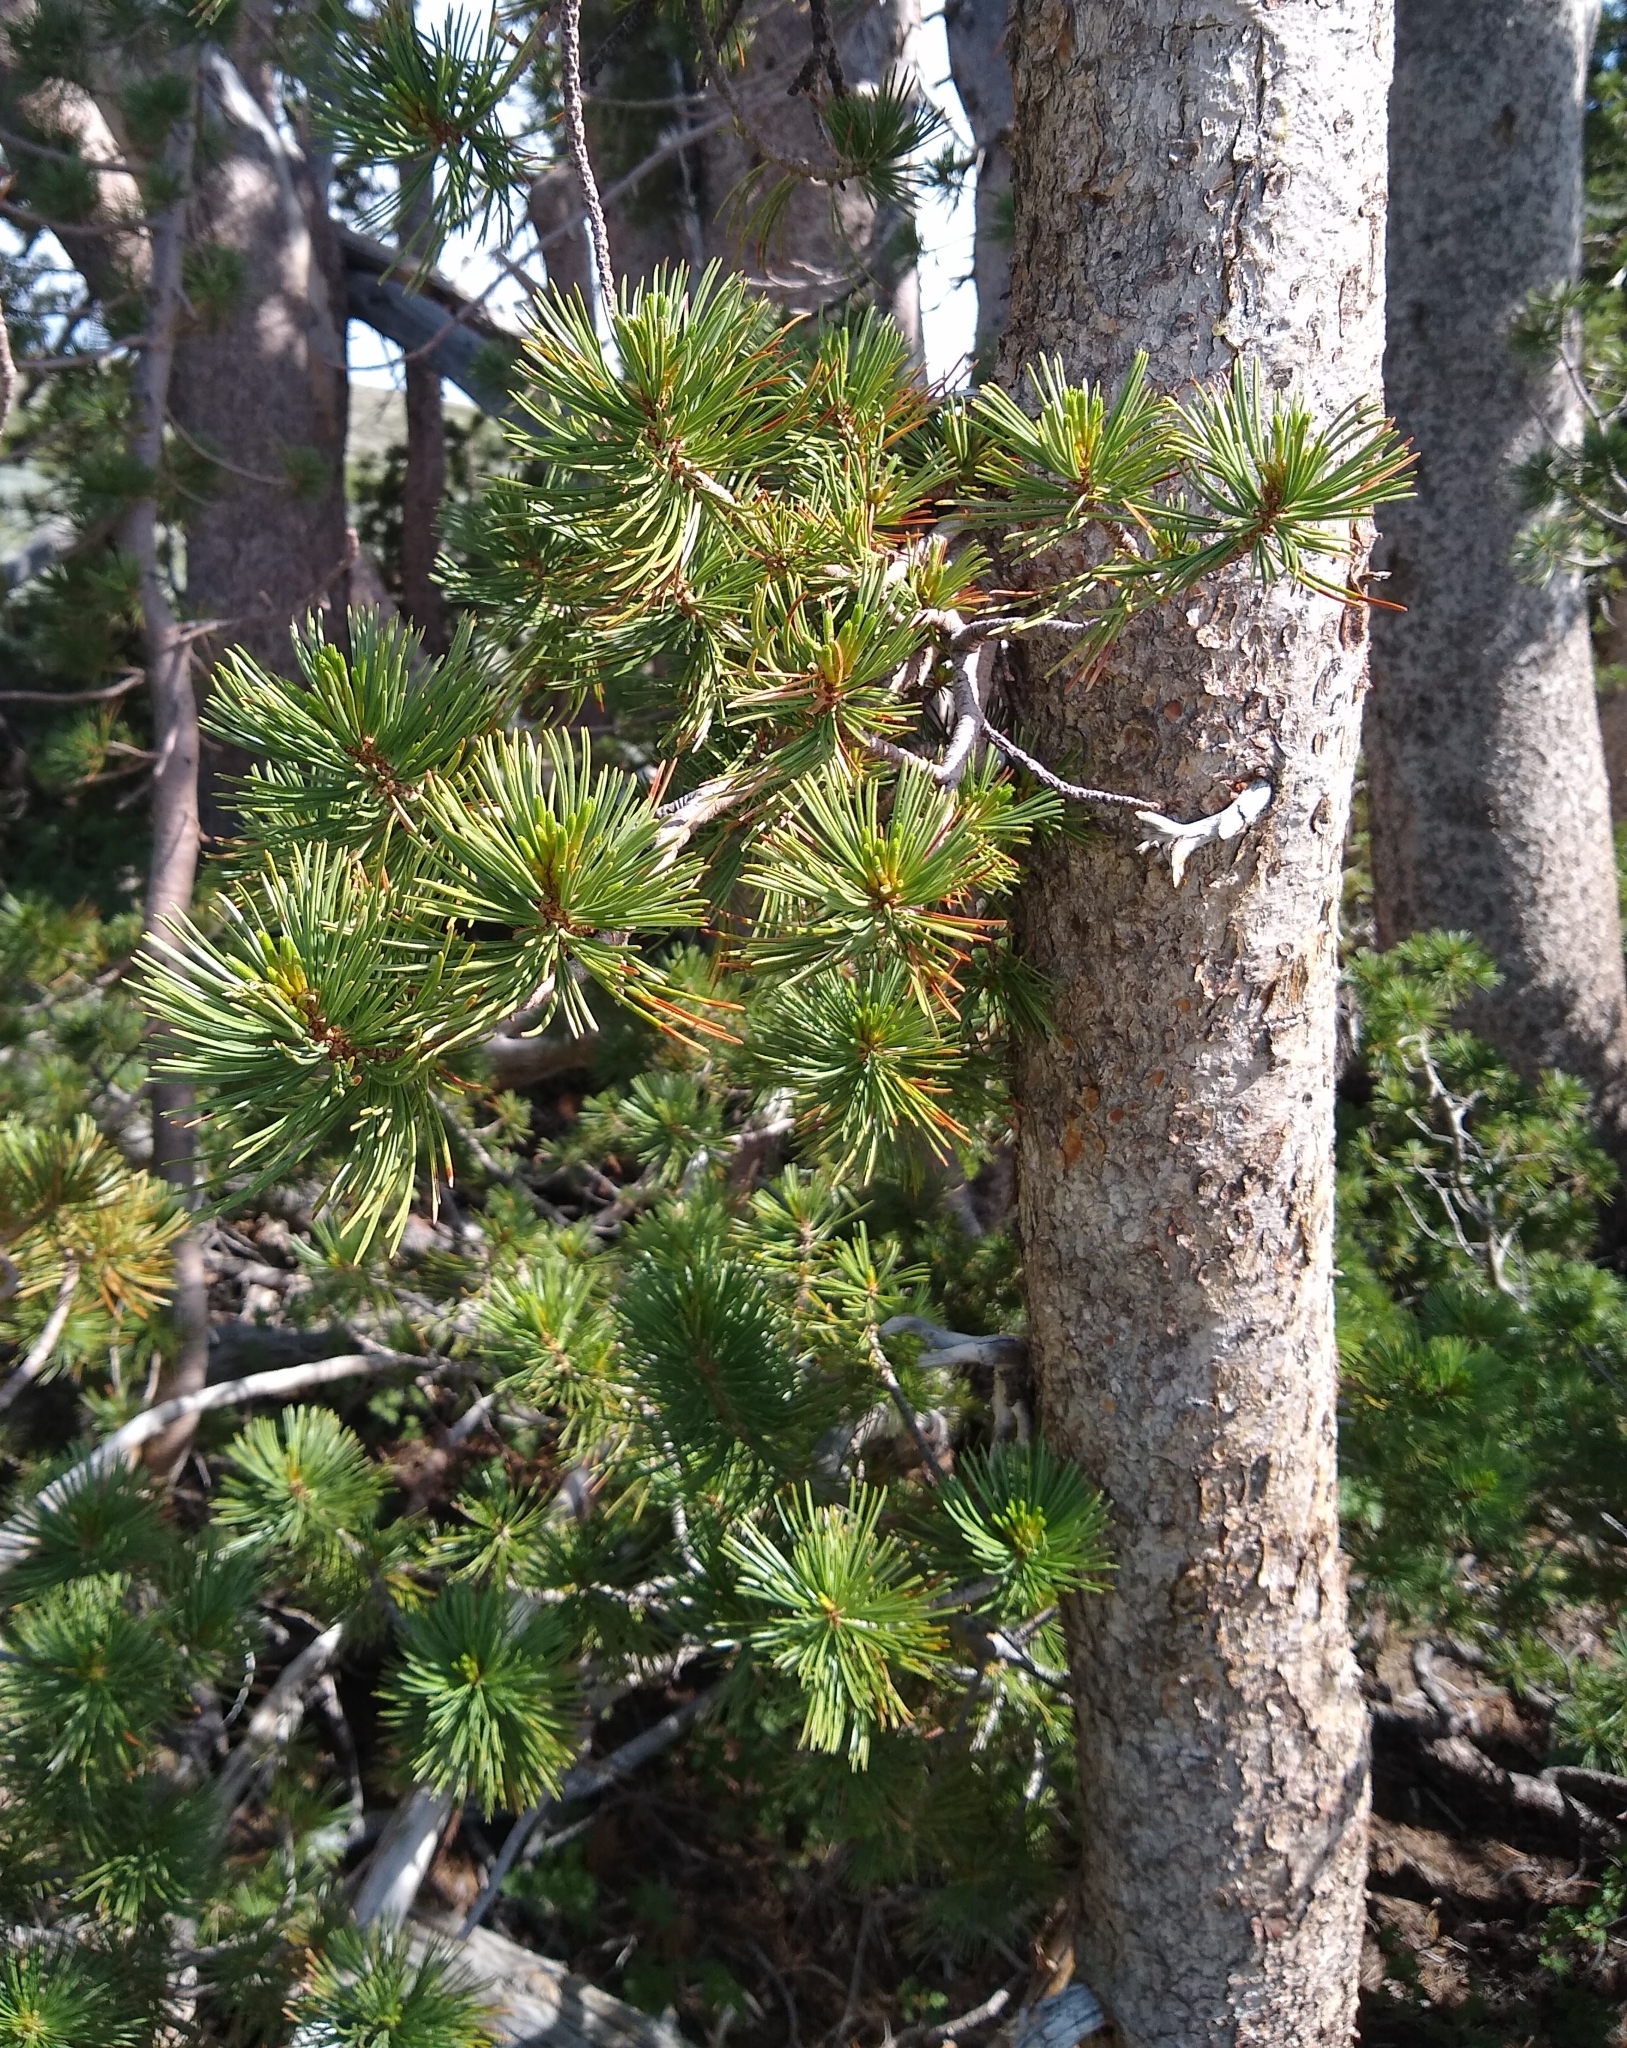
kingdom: Plantae
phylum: Tracheophyta
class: Pinopsida
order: Pinales
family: Pinaceae
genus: Pinus
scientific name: Pinus albicaulis
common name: Whitebark pine
